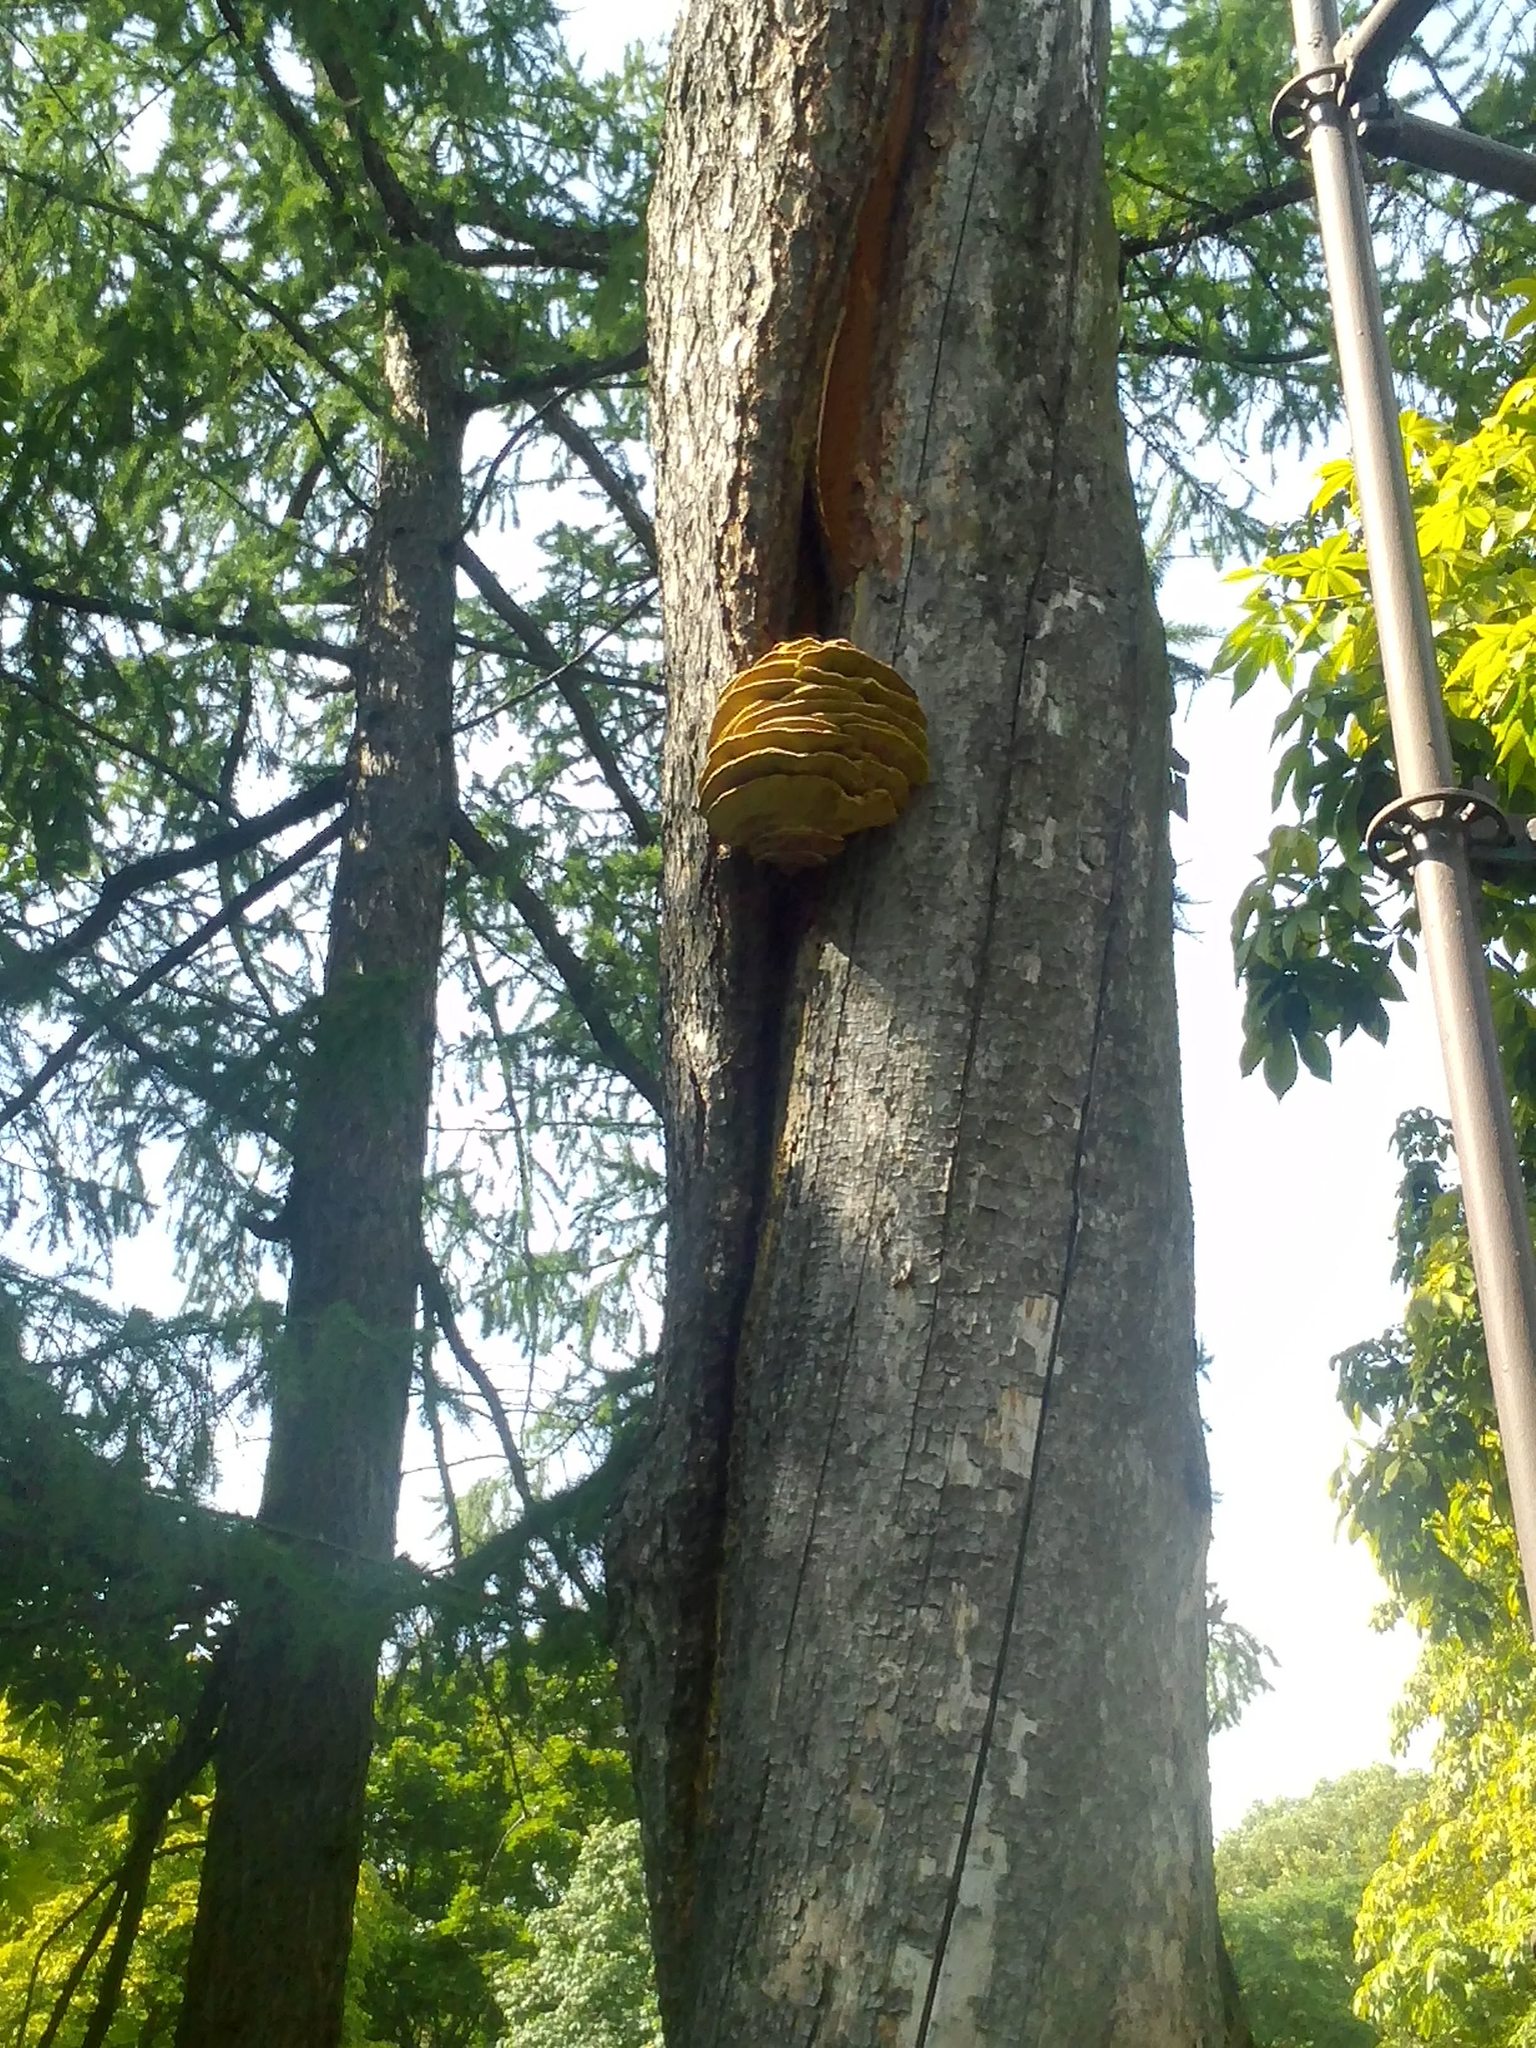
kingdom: Fungi
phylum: Basidiomycota
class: Agaricomycetes
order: Polyporales
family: Laetiporaceae
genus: Laetiporus
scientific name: Laetiporus sulphureus
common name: Chicken of the woods
